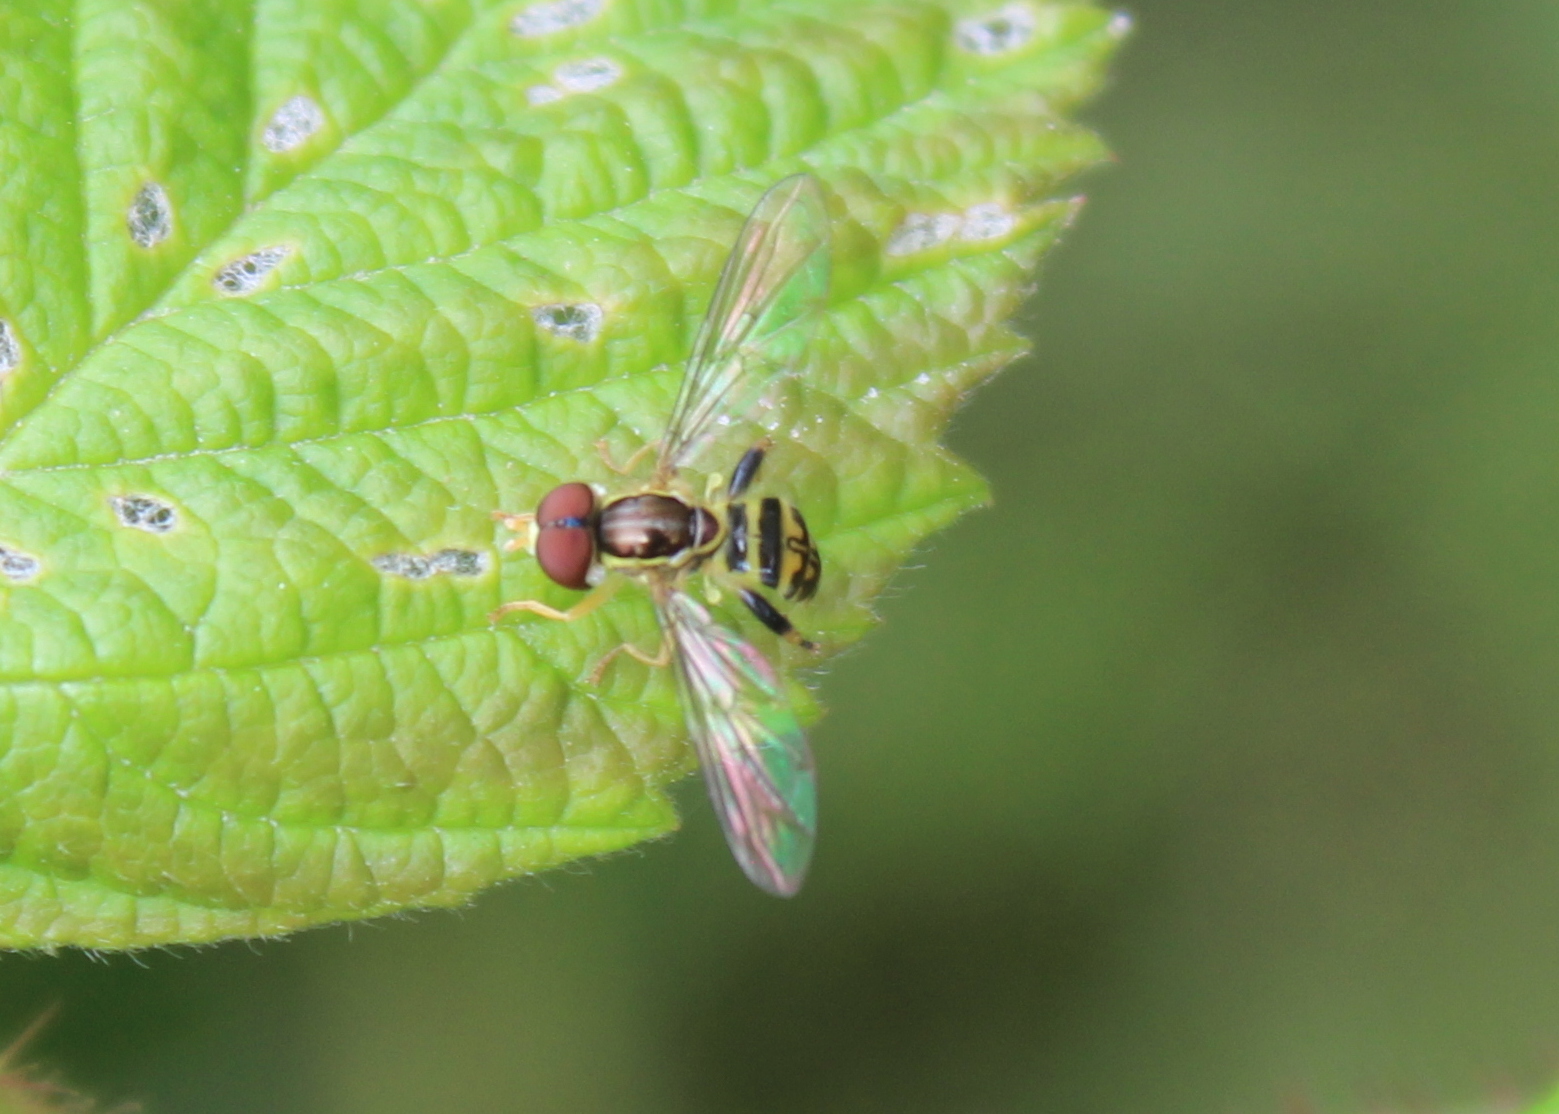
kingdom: Animalia
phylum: Arthropoda
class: Insecta
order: Diptera
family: Syrphidae
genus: Toxomerus
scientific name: Toxomerus geminatus
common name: Eastern calligrapher
